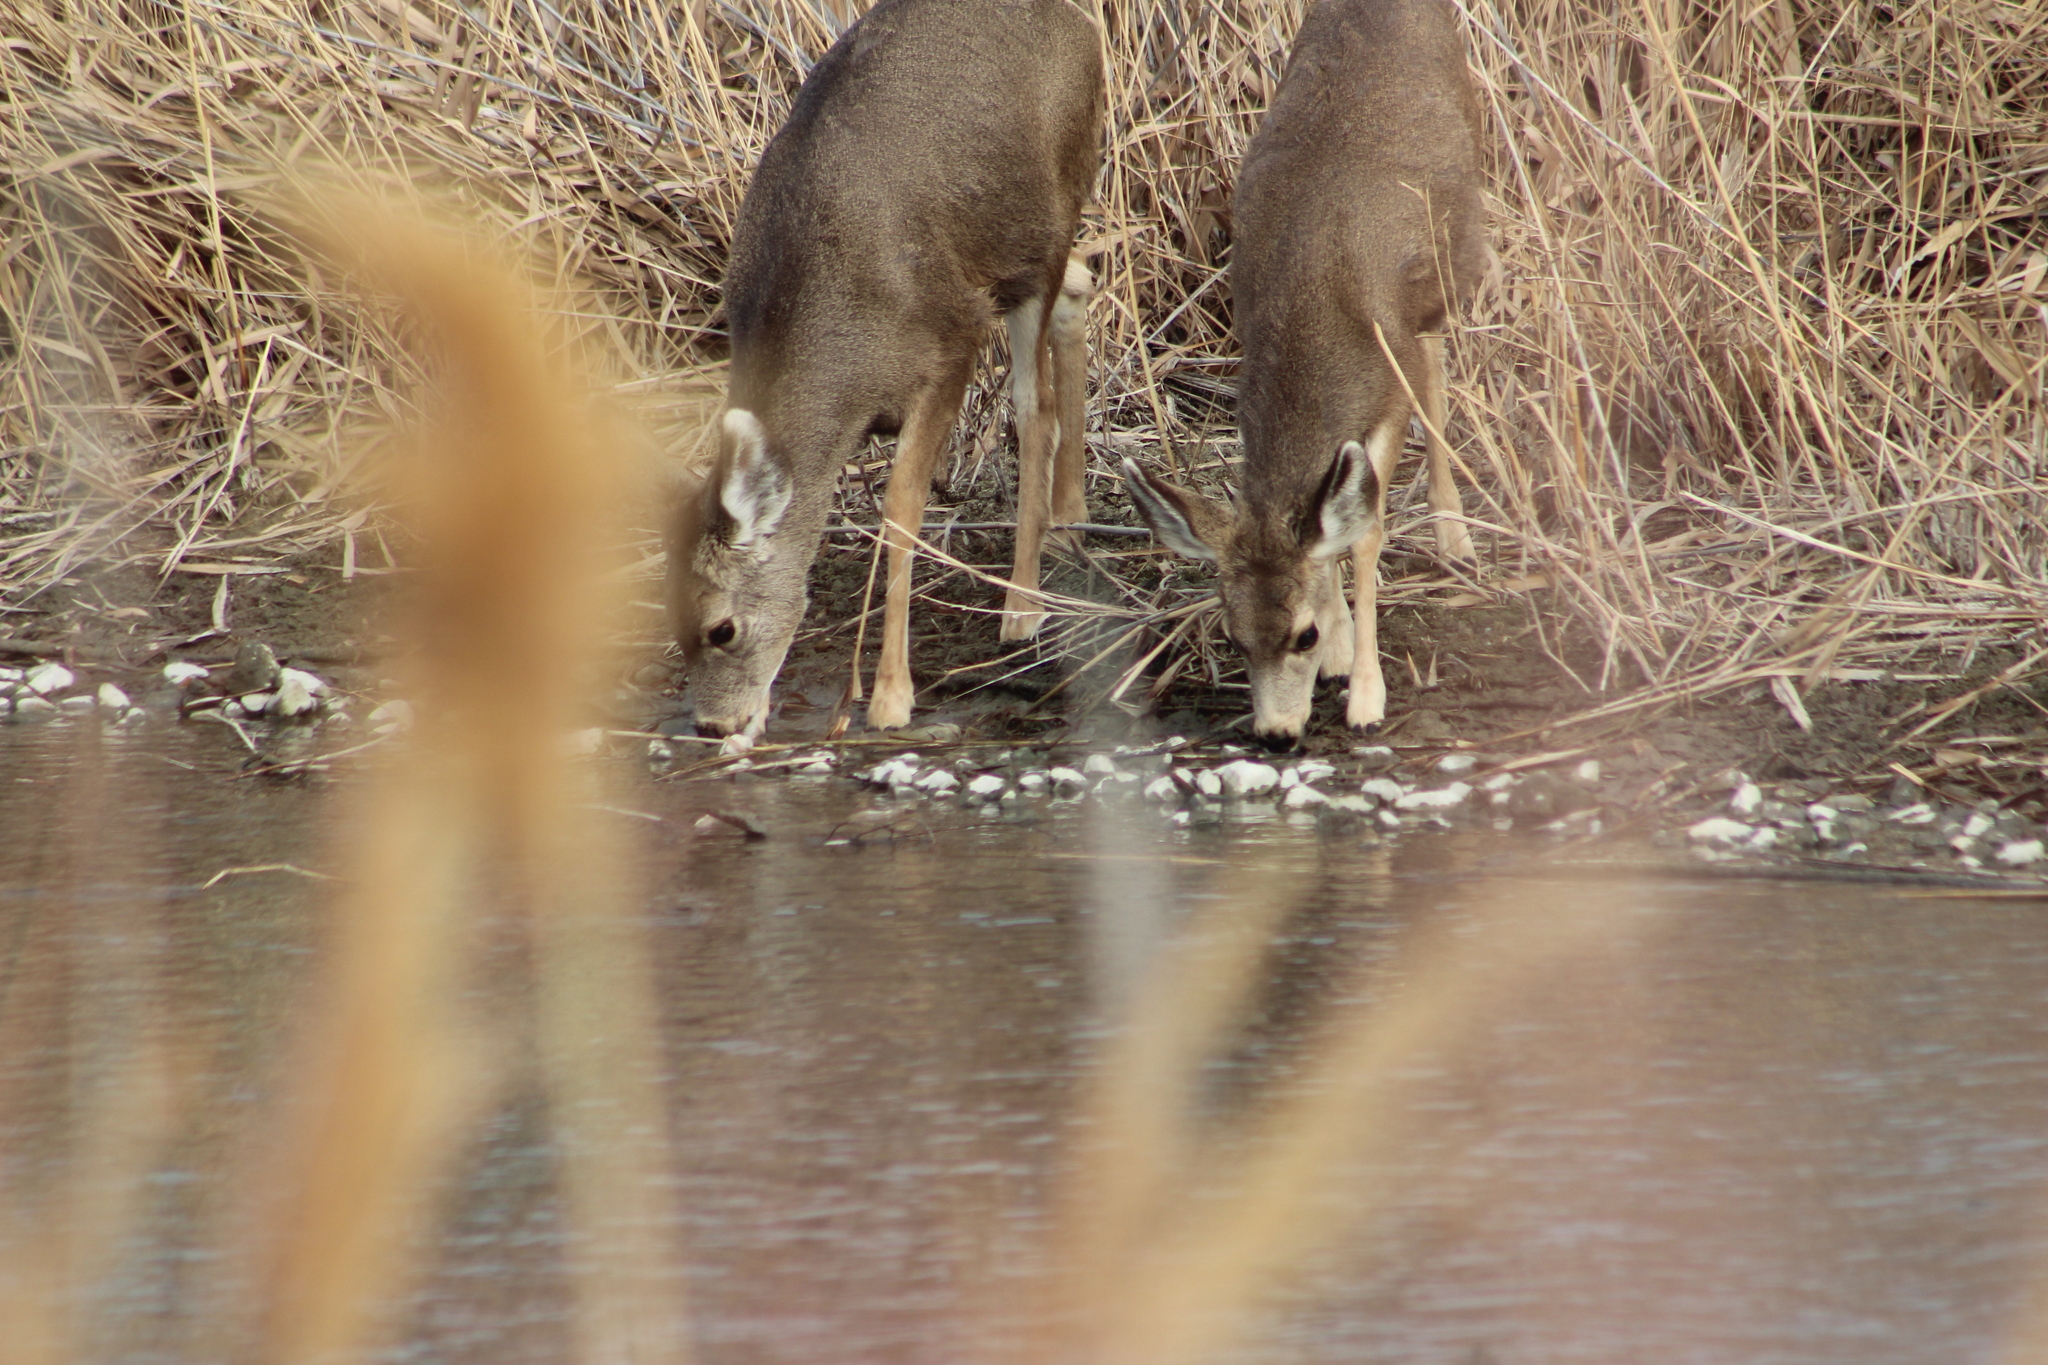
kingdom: Animalia
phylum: Chordata
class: Mammalia
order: Artiodactyla
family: Cervidae
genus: Odocoileus
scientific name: Odocoileus hemionus
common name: Mule deer
